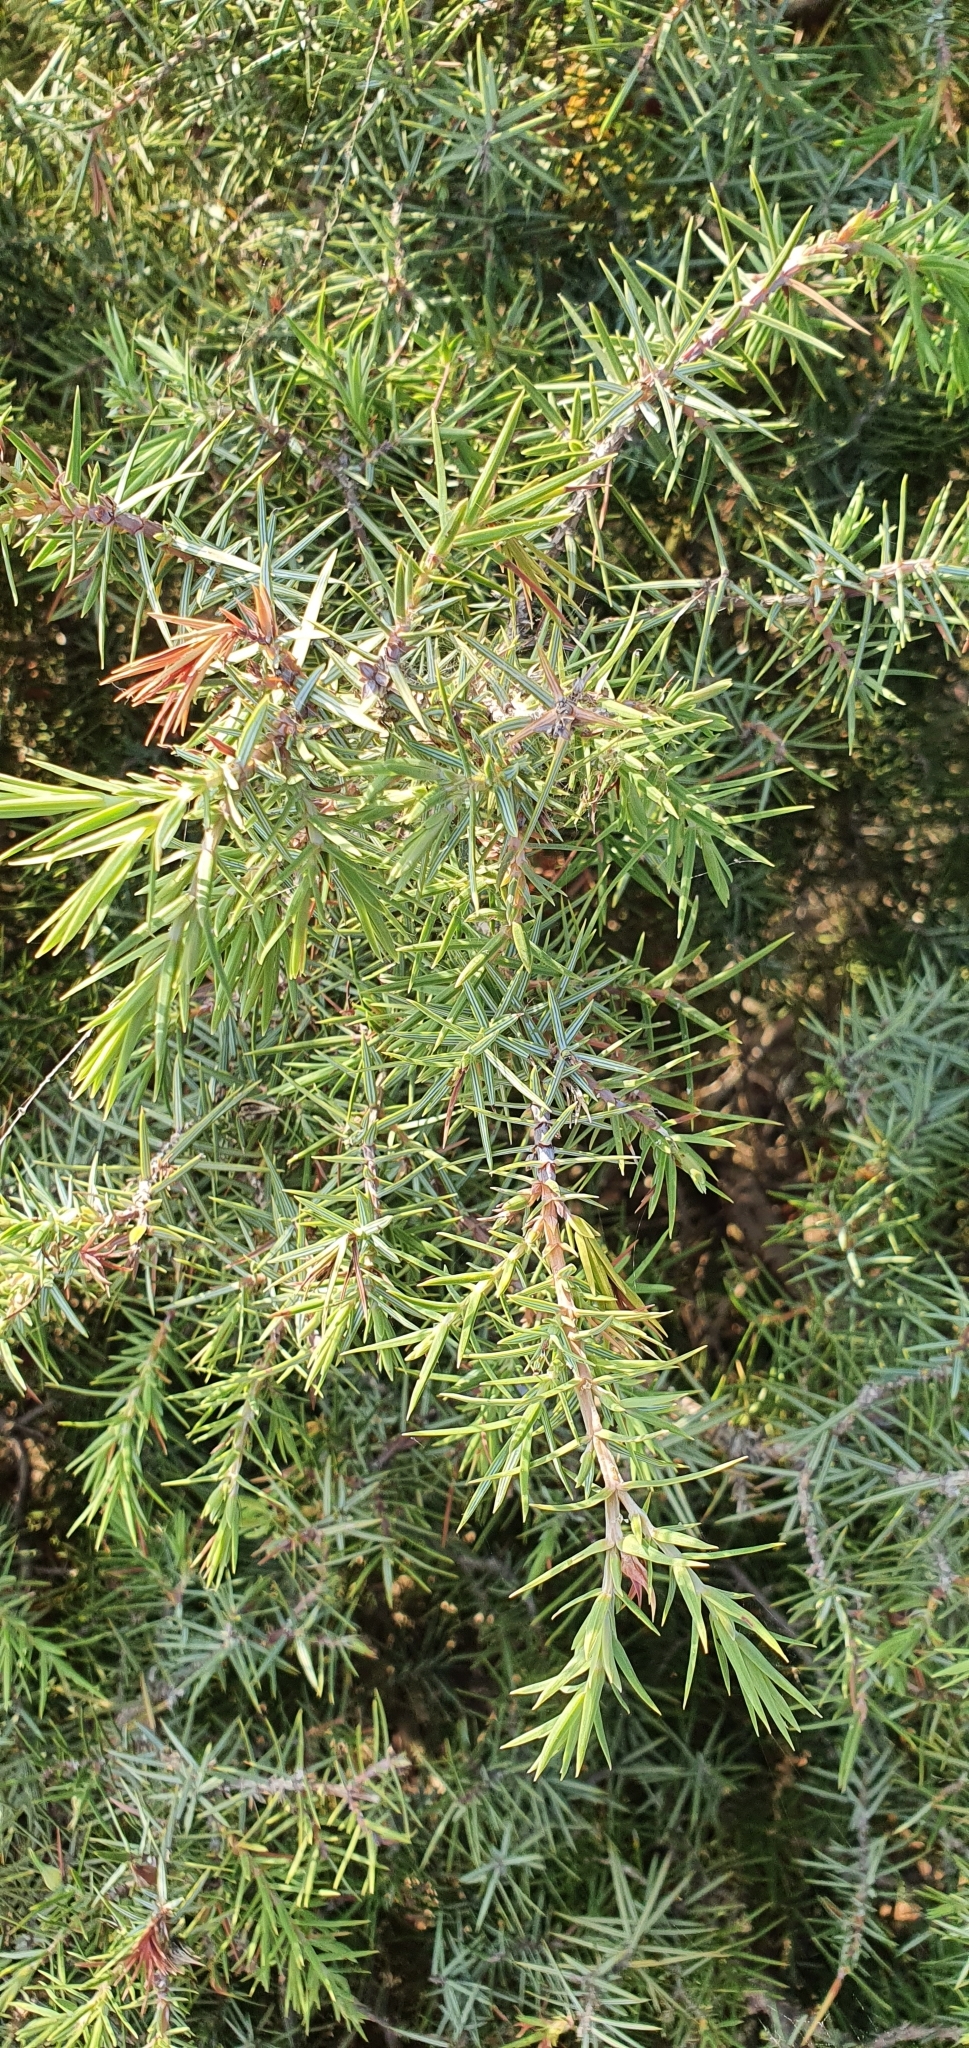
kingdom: Plantae
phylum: Tracheophyta
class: Pinopsida
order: Pinales
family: Cupressaceae
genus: Juniperus
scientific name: Juniperus oxycedrus
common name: Prickly juniper
